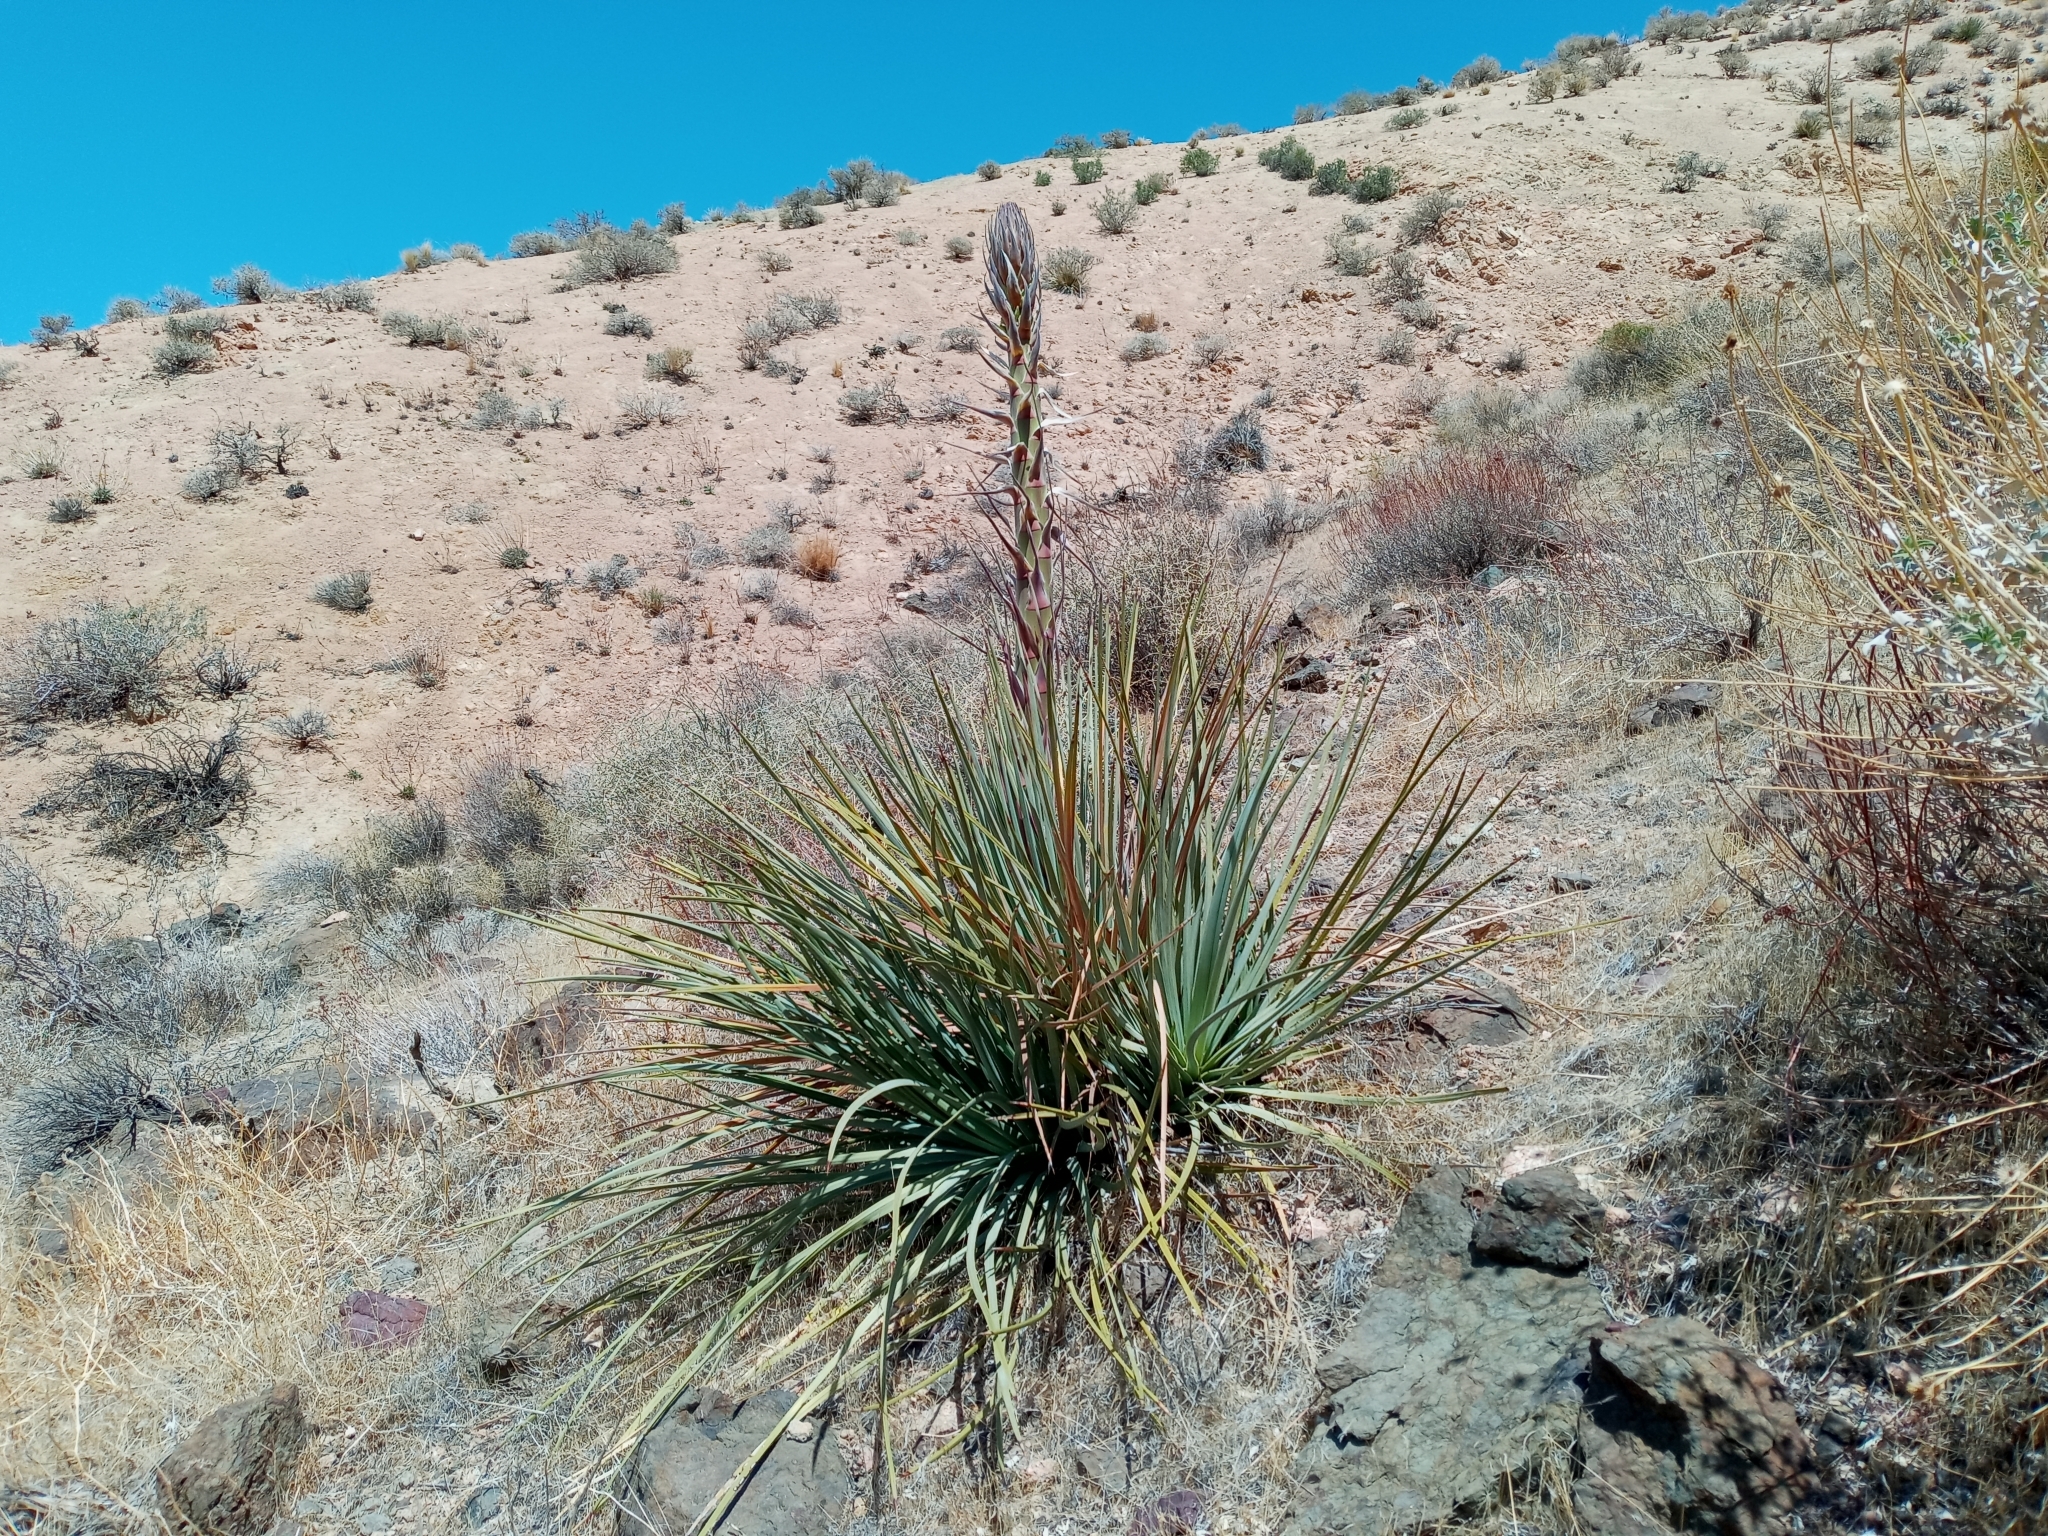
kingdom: Plantae
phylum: Tracheophyta
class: Liliopsida
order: Asparagales
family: Asparagaceae
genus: Hesperoyucca
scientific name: Hesperoyucca whipplei
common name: Our lord's-candle
